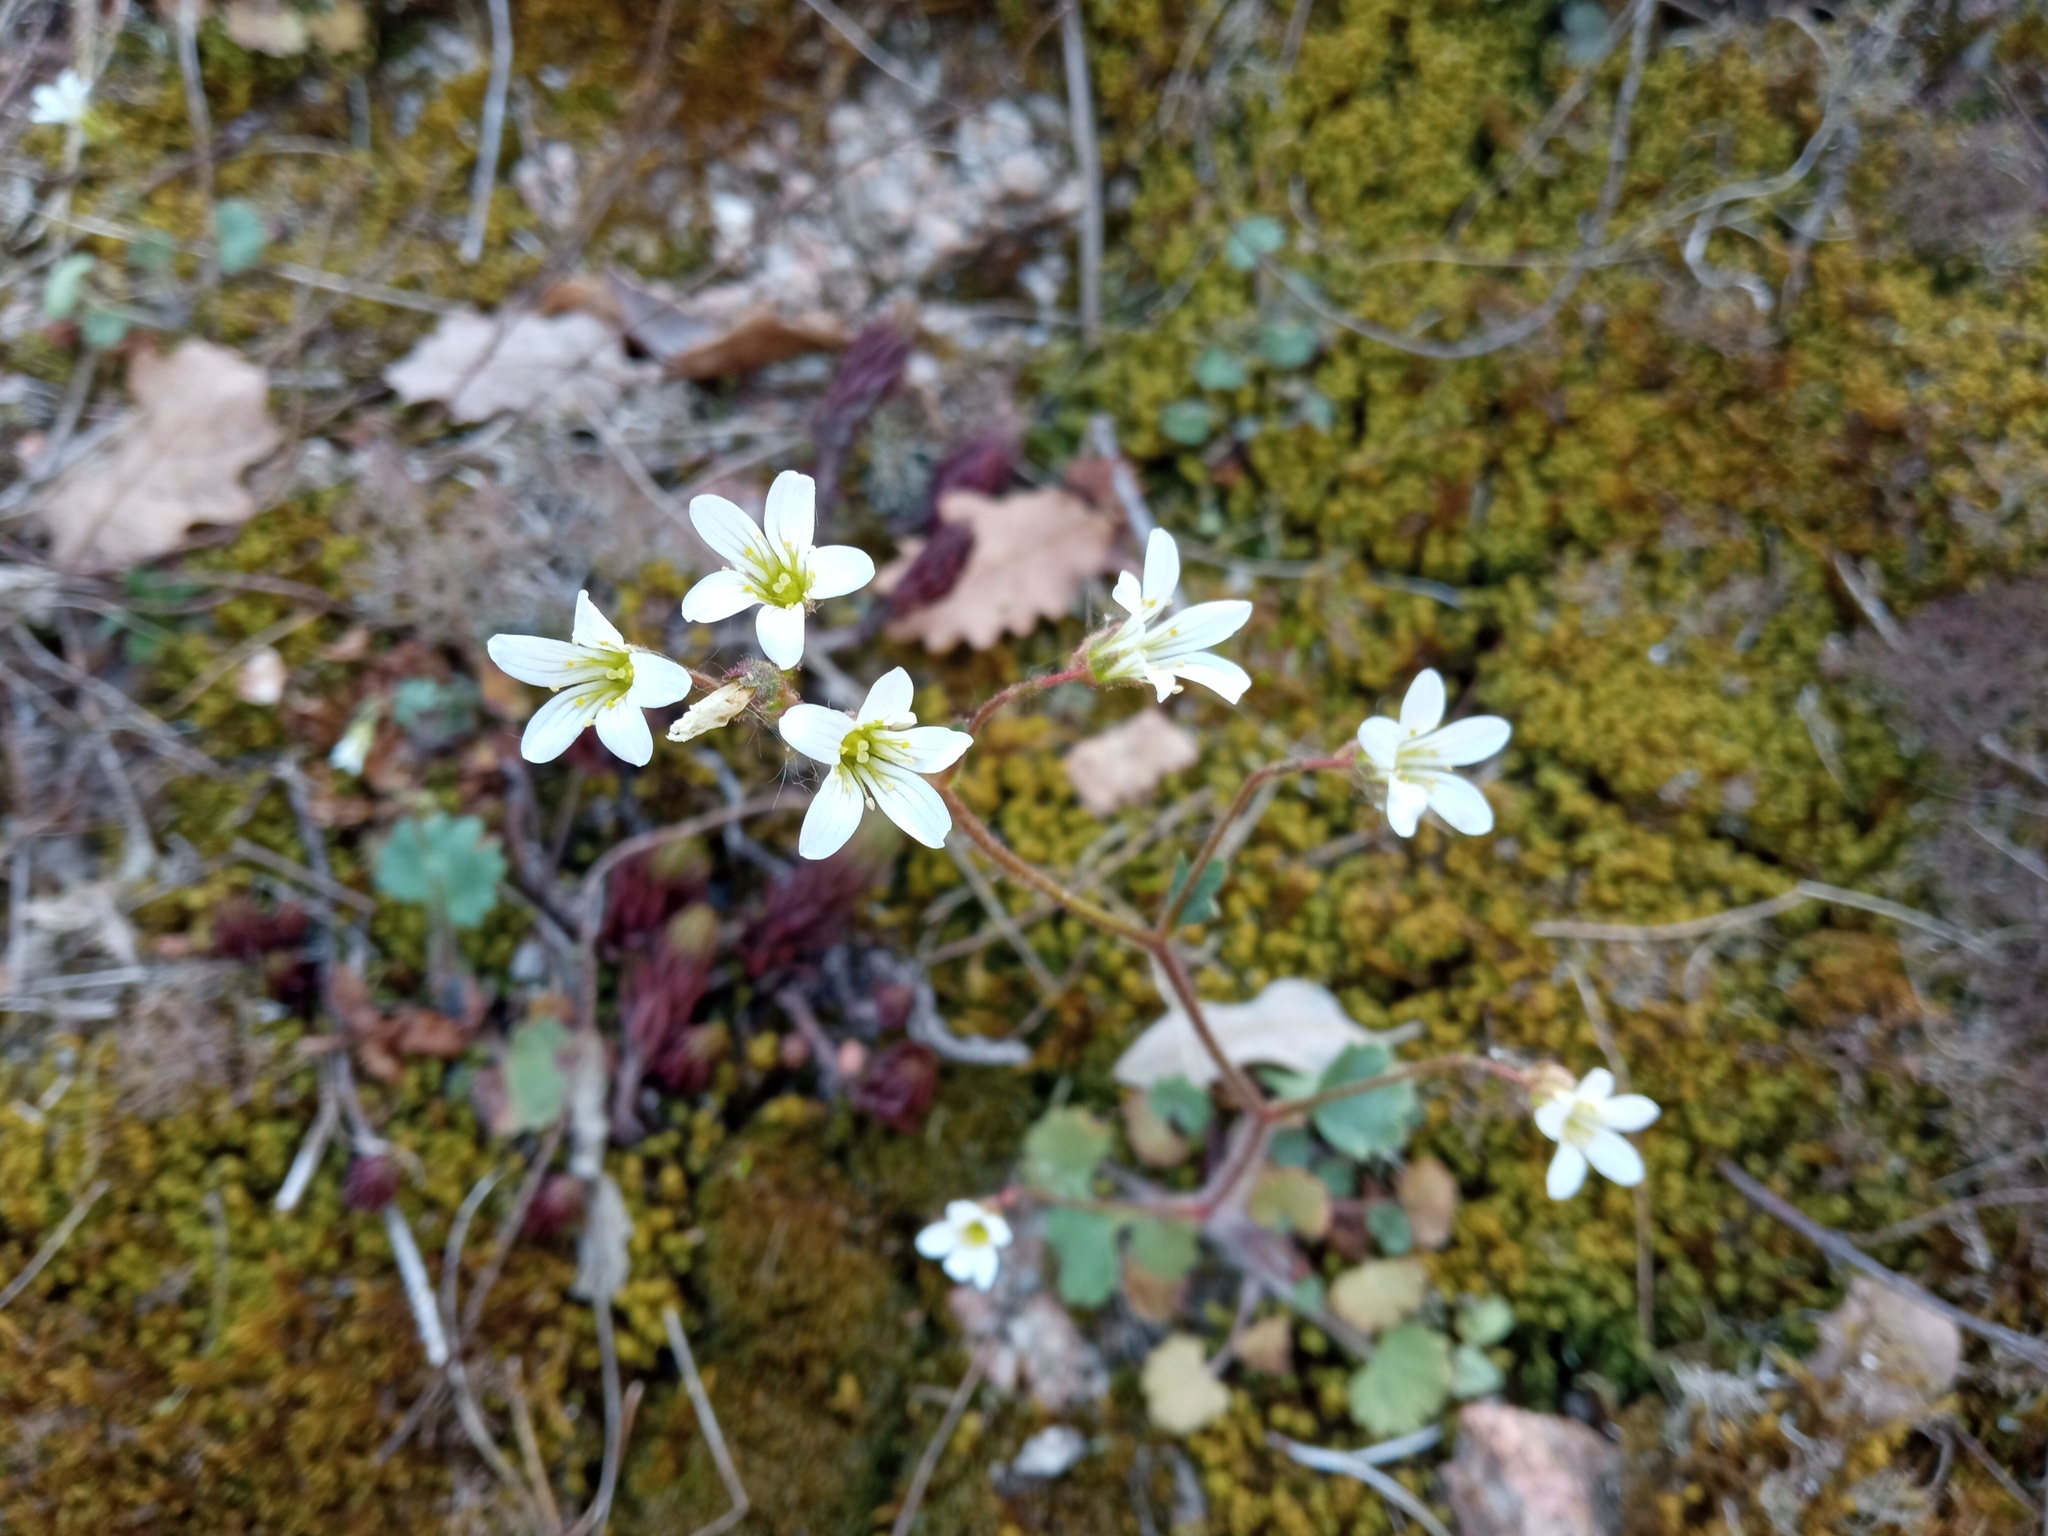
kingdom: Plantae
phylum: Tracheophyta
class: Magnoliopsida
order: Saxifragales
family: Saxifragaceae
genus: Saxifraga
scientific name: Saxifraga granulata
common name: Meadow saxifrage
